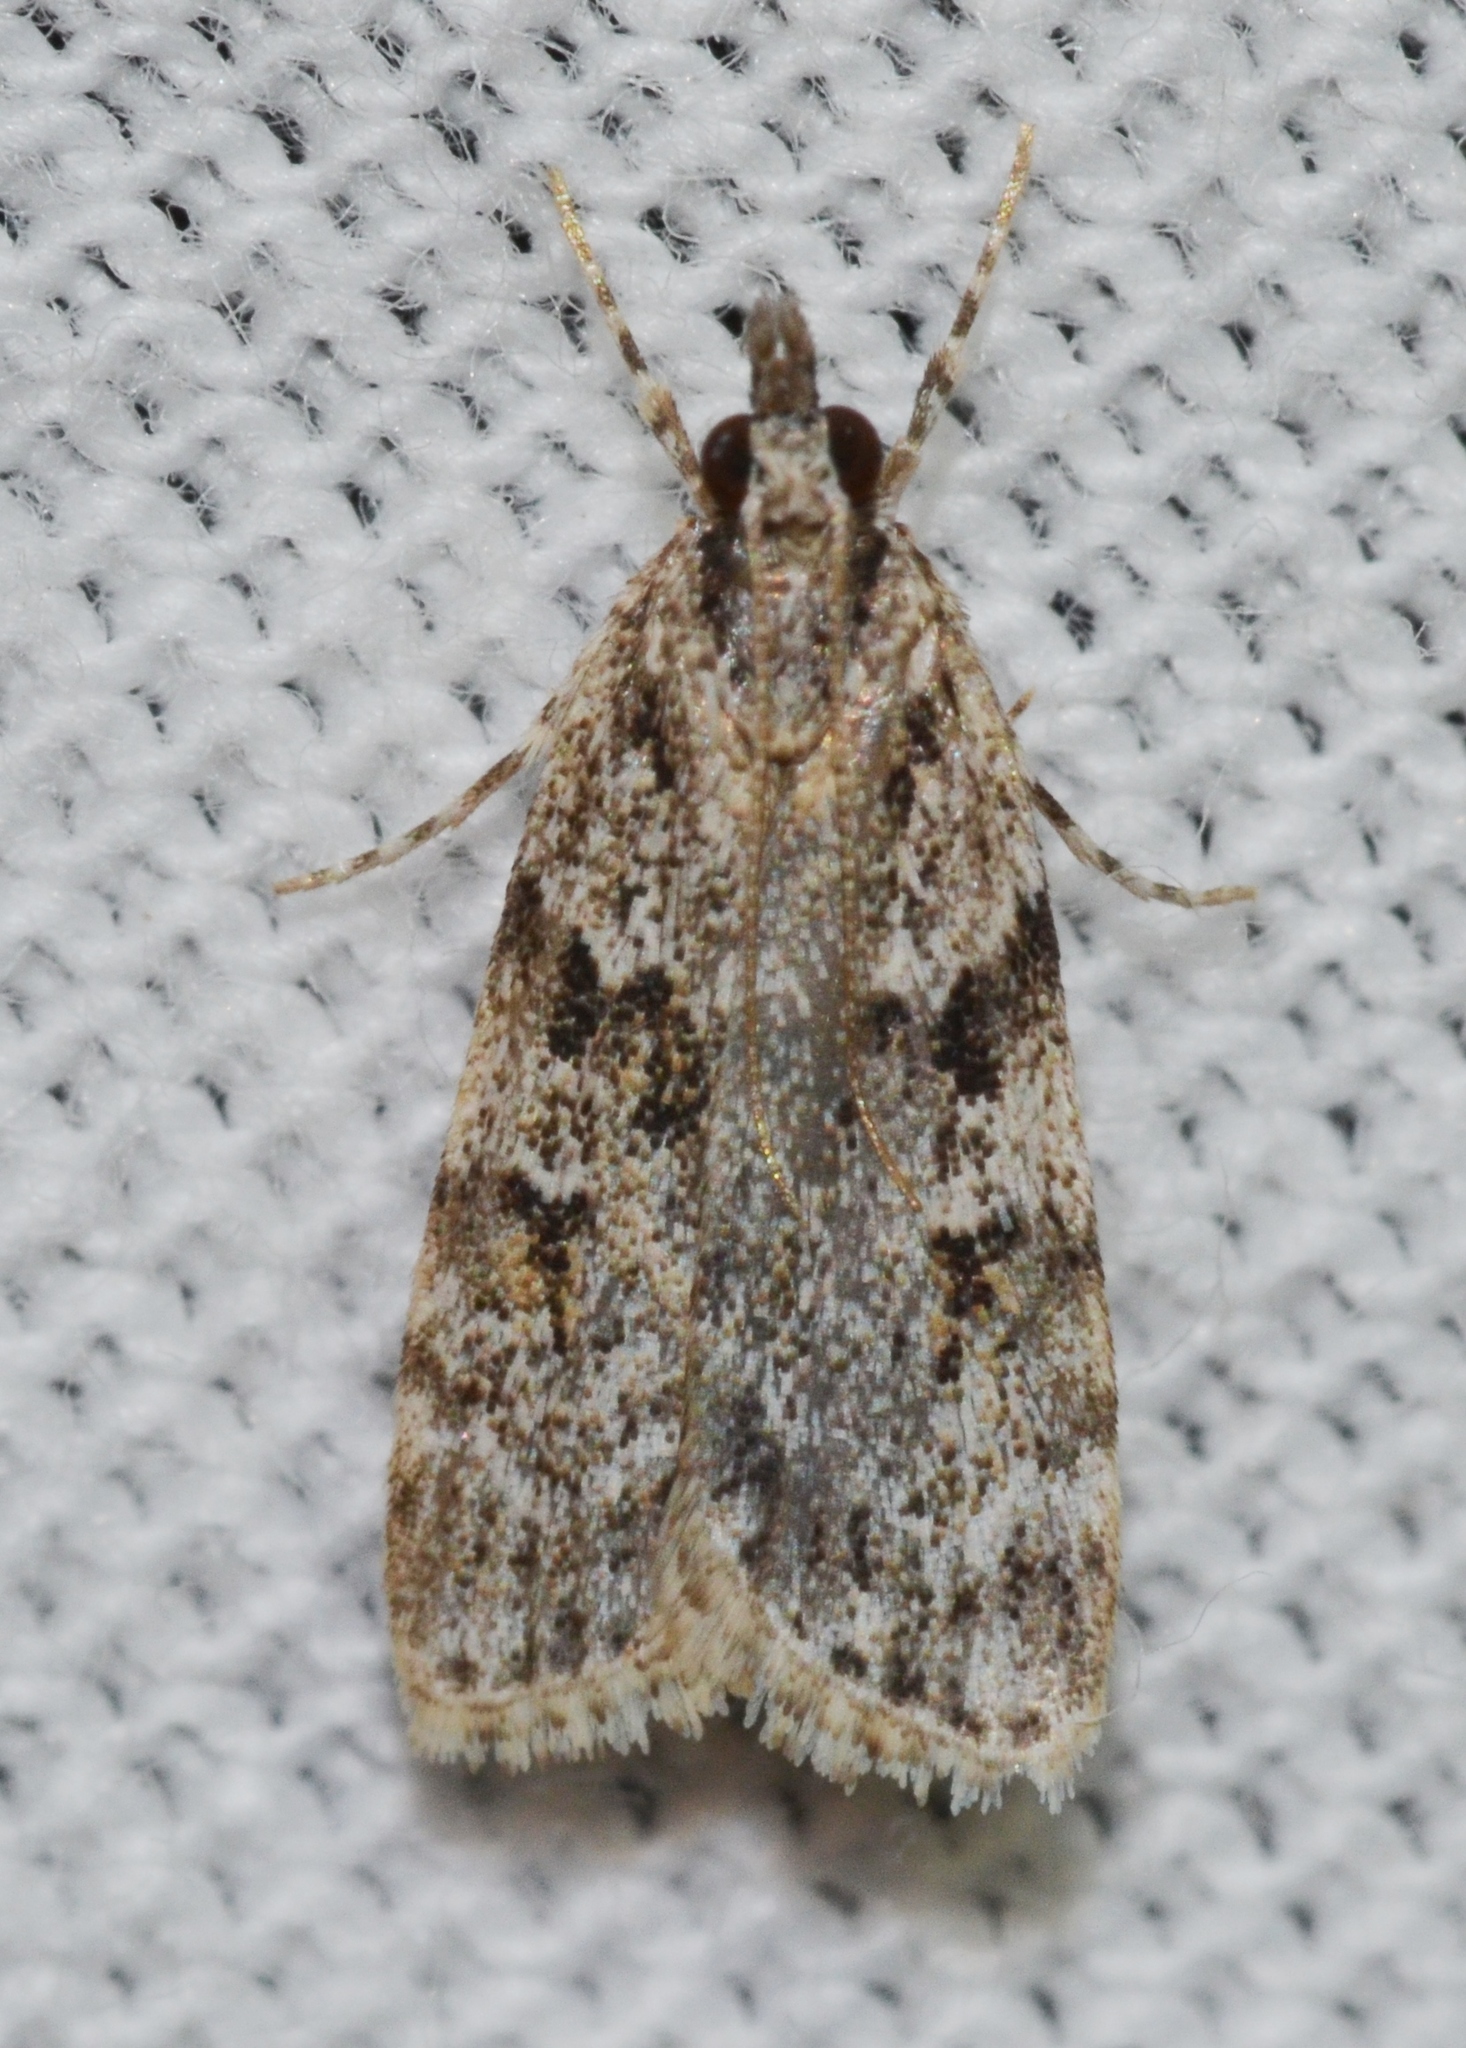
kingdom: Animalia
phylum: Arthropoda
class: Insecta
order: Lepidoptera
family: Crambidae
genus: Scoparia
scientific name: Scoparia biplagialis
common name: Double-striped scoparia moth
